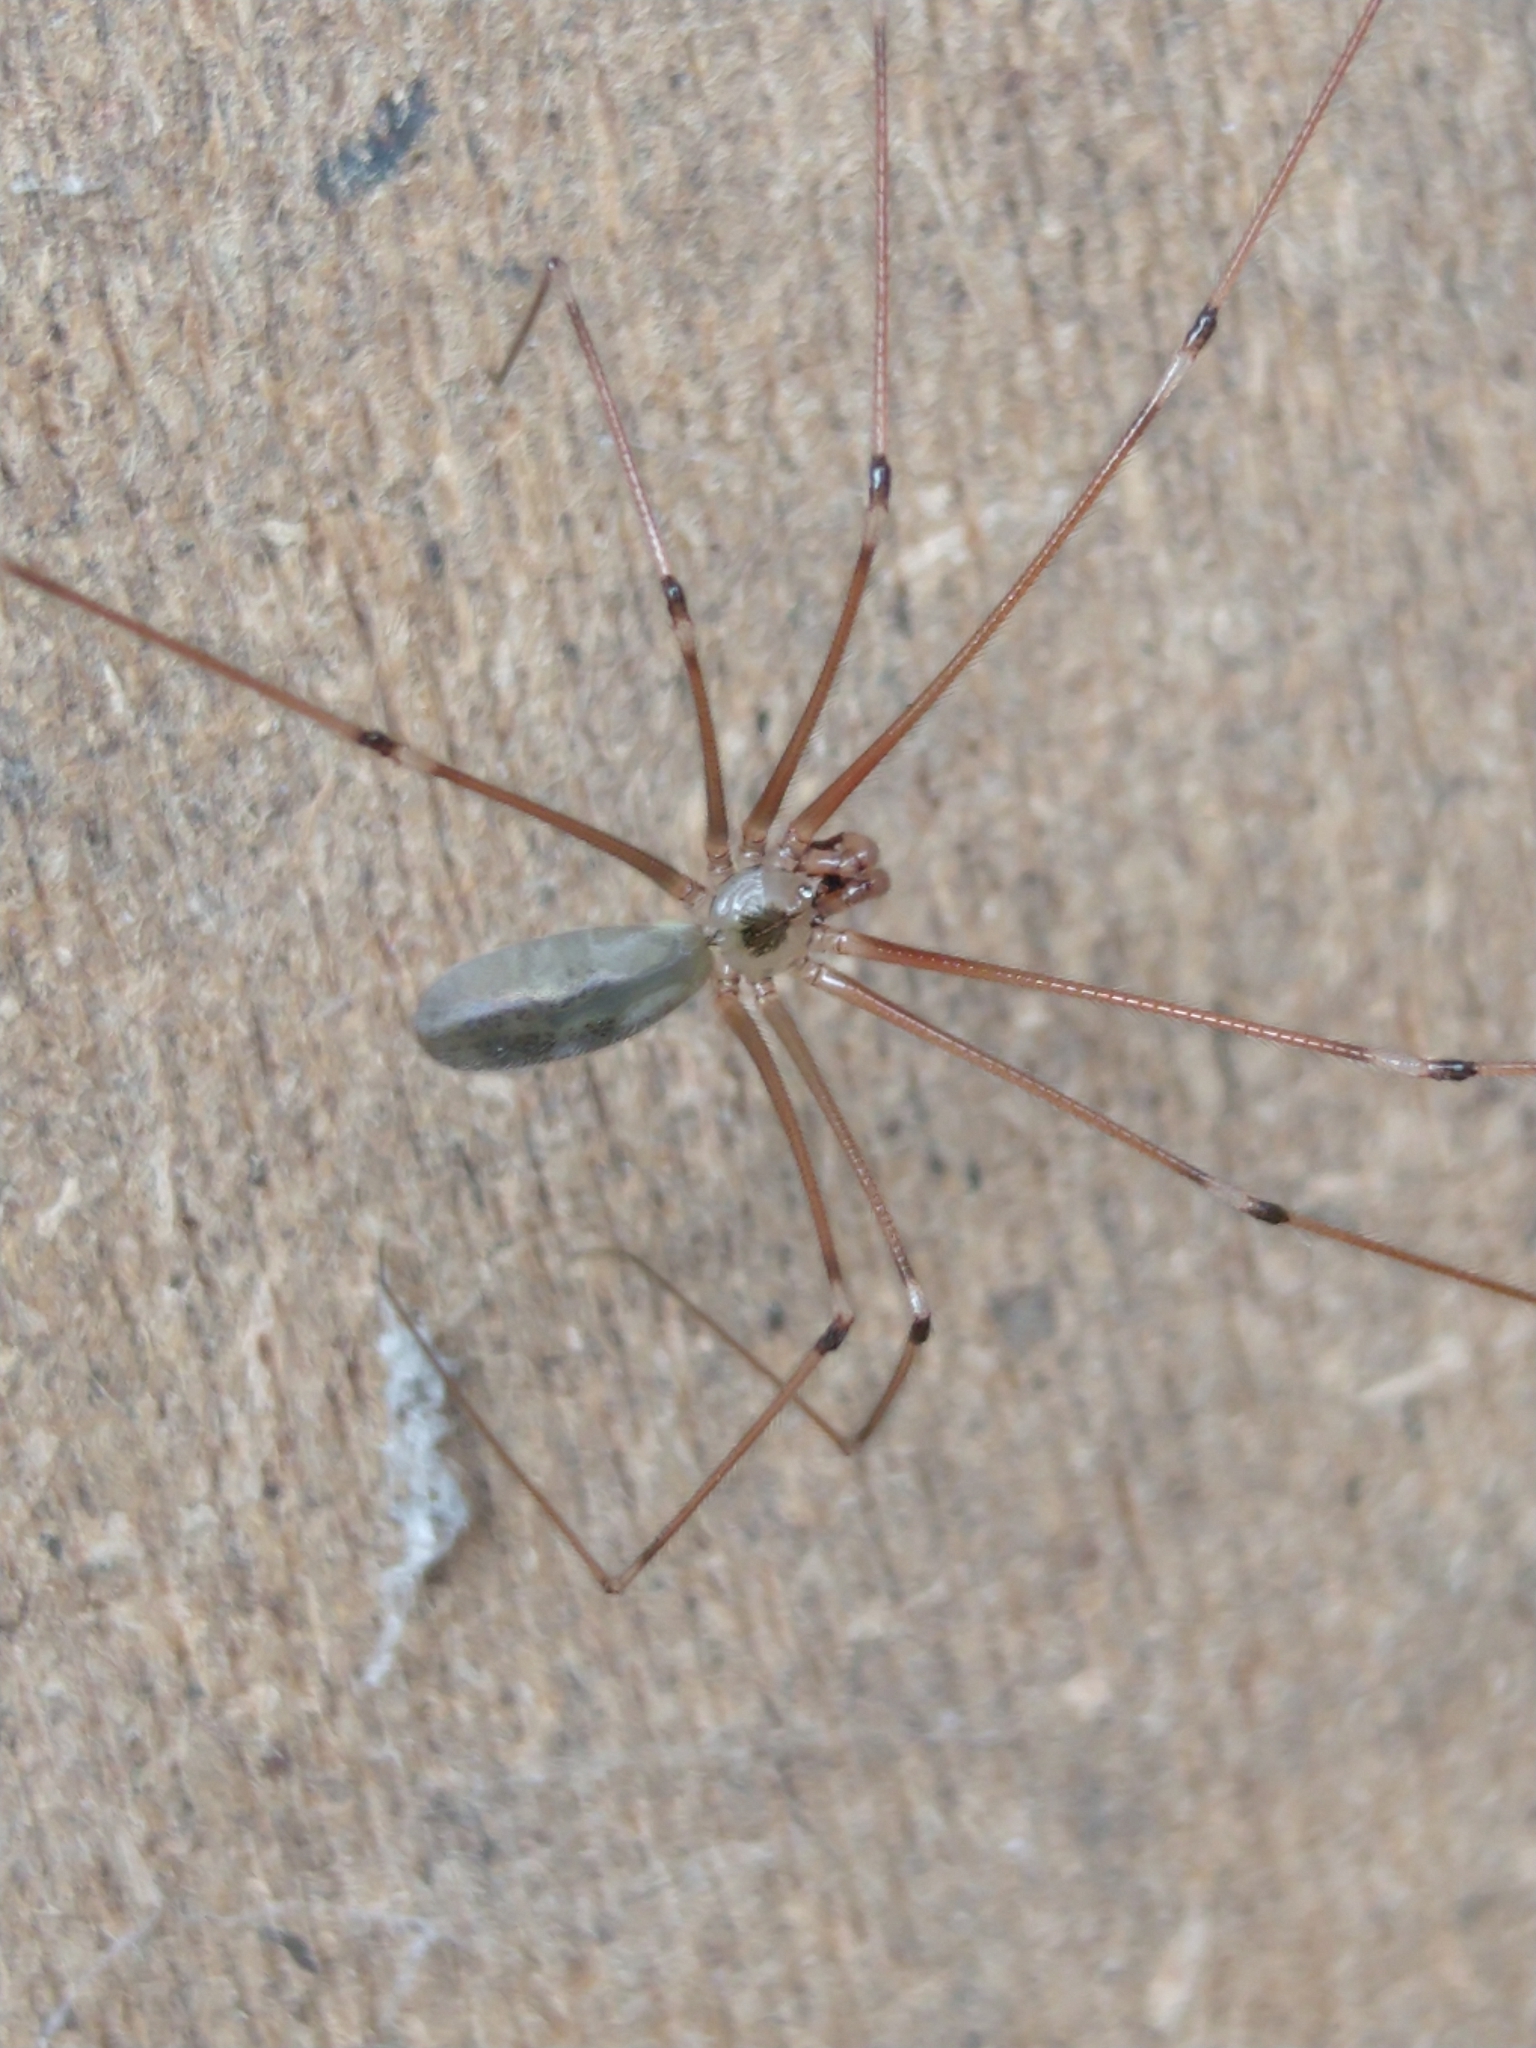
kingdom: Animalia
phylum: Arthropoda
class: Arachnida
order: Araneae
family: Pholcidae
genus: Pholcus
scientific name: Pholcus phalangioides
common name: Longbodied cellar spider
